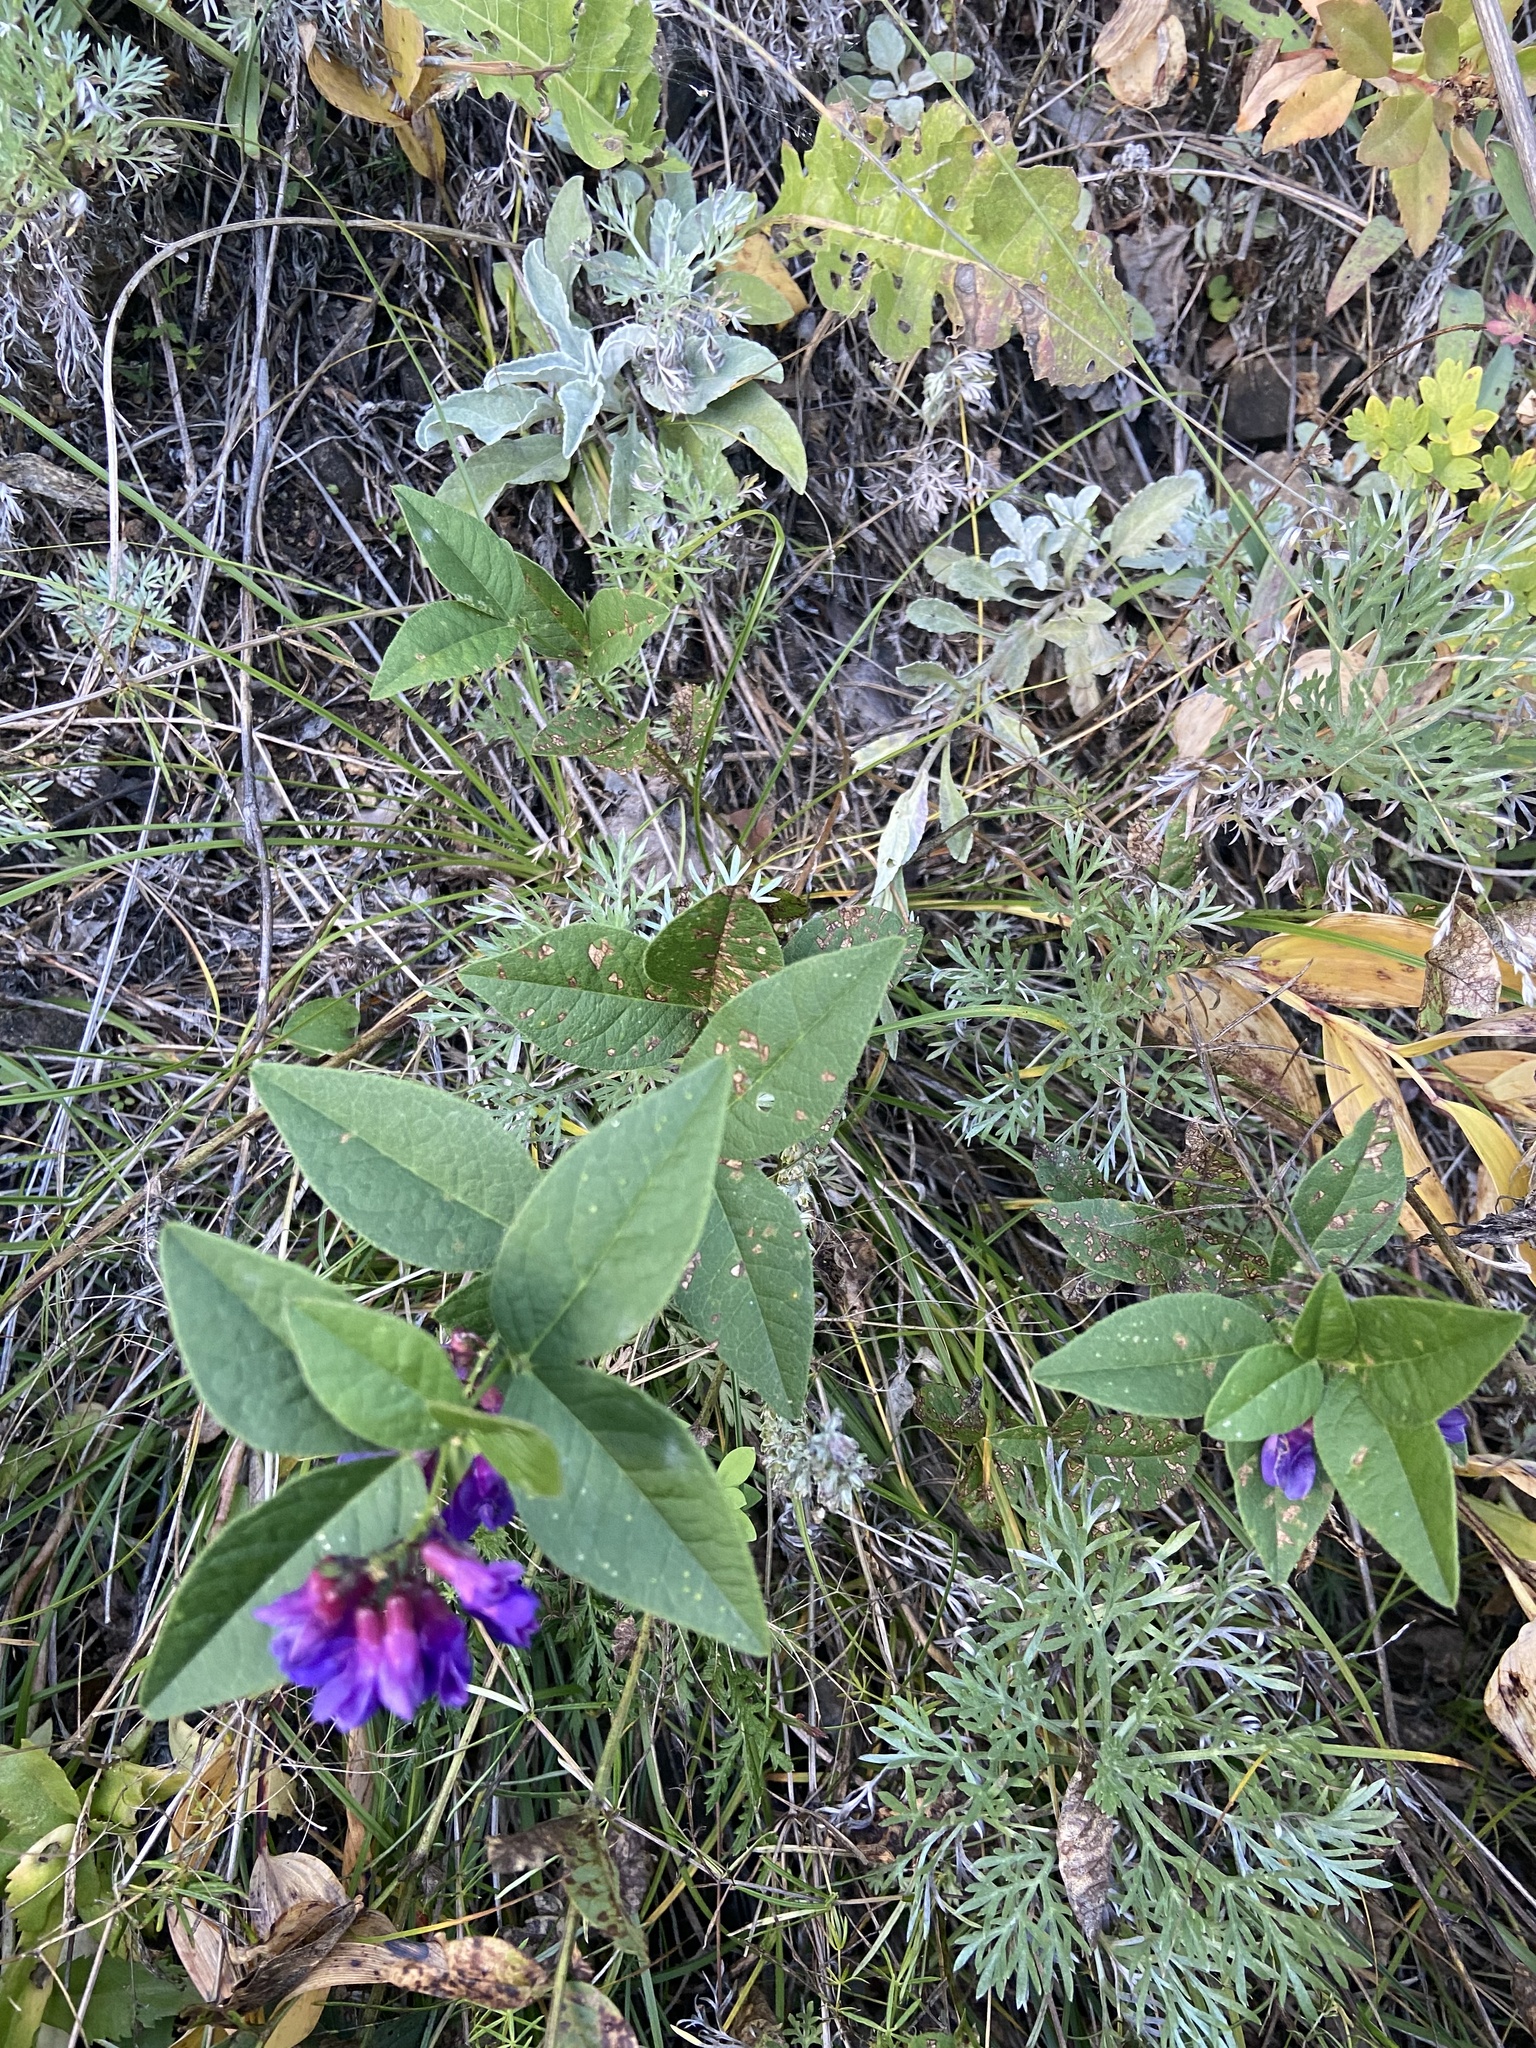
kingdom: Plantae
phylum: Tracheophyta
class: Magnoliopsida
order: Fabales
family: Fabaceae
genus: Vicia
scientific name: Vicia unijuga
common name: Two-leaf vetch
